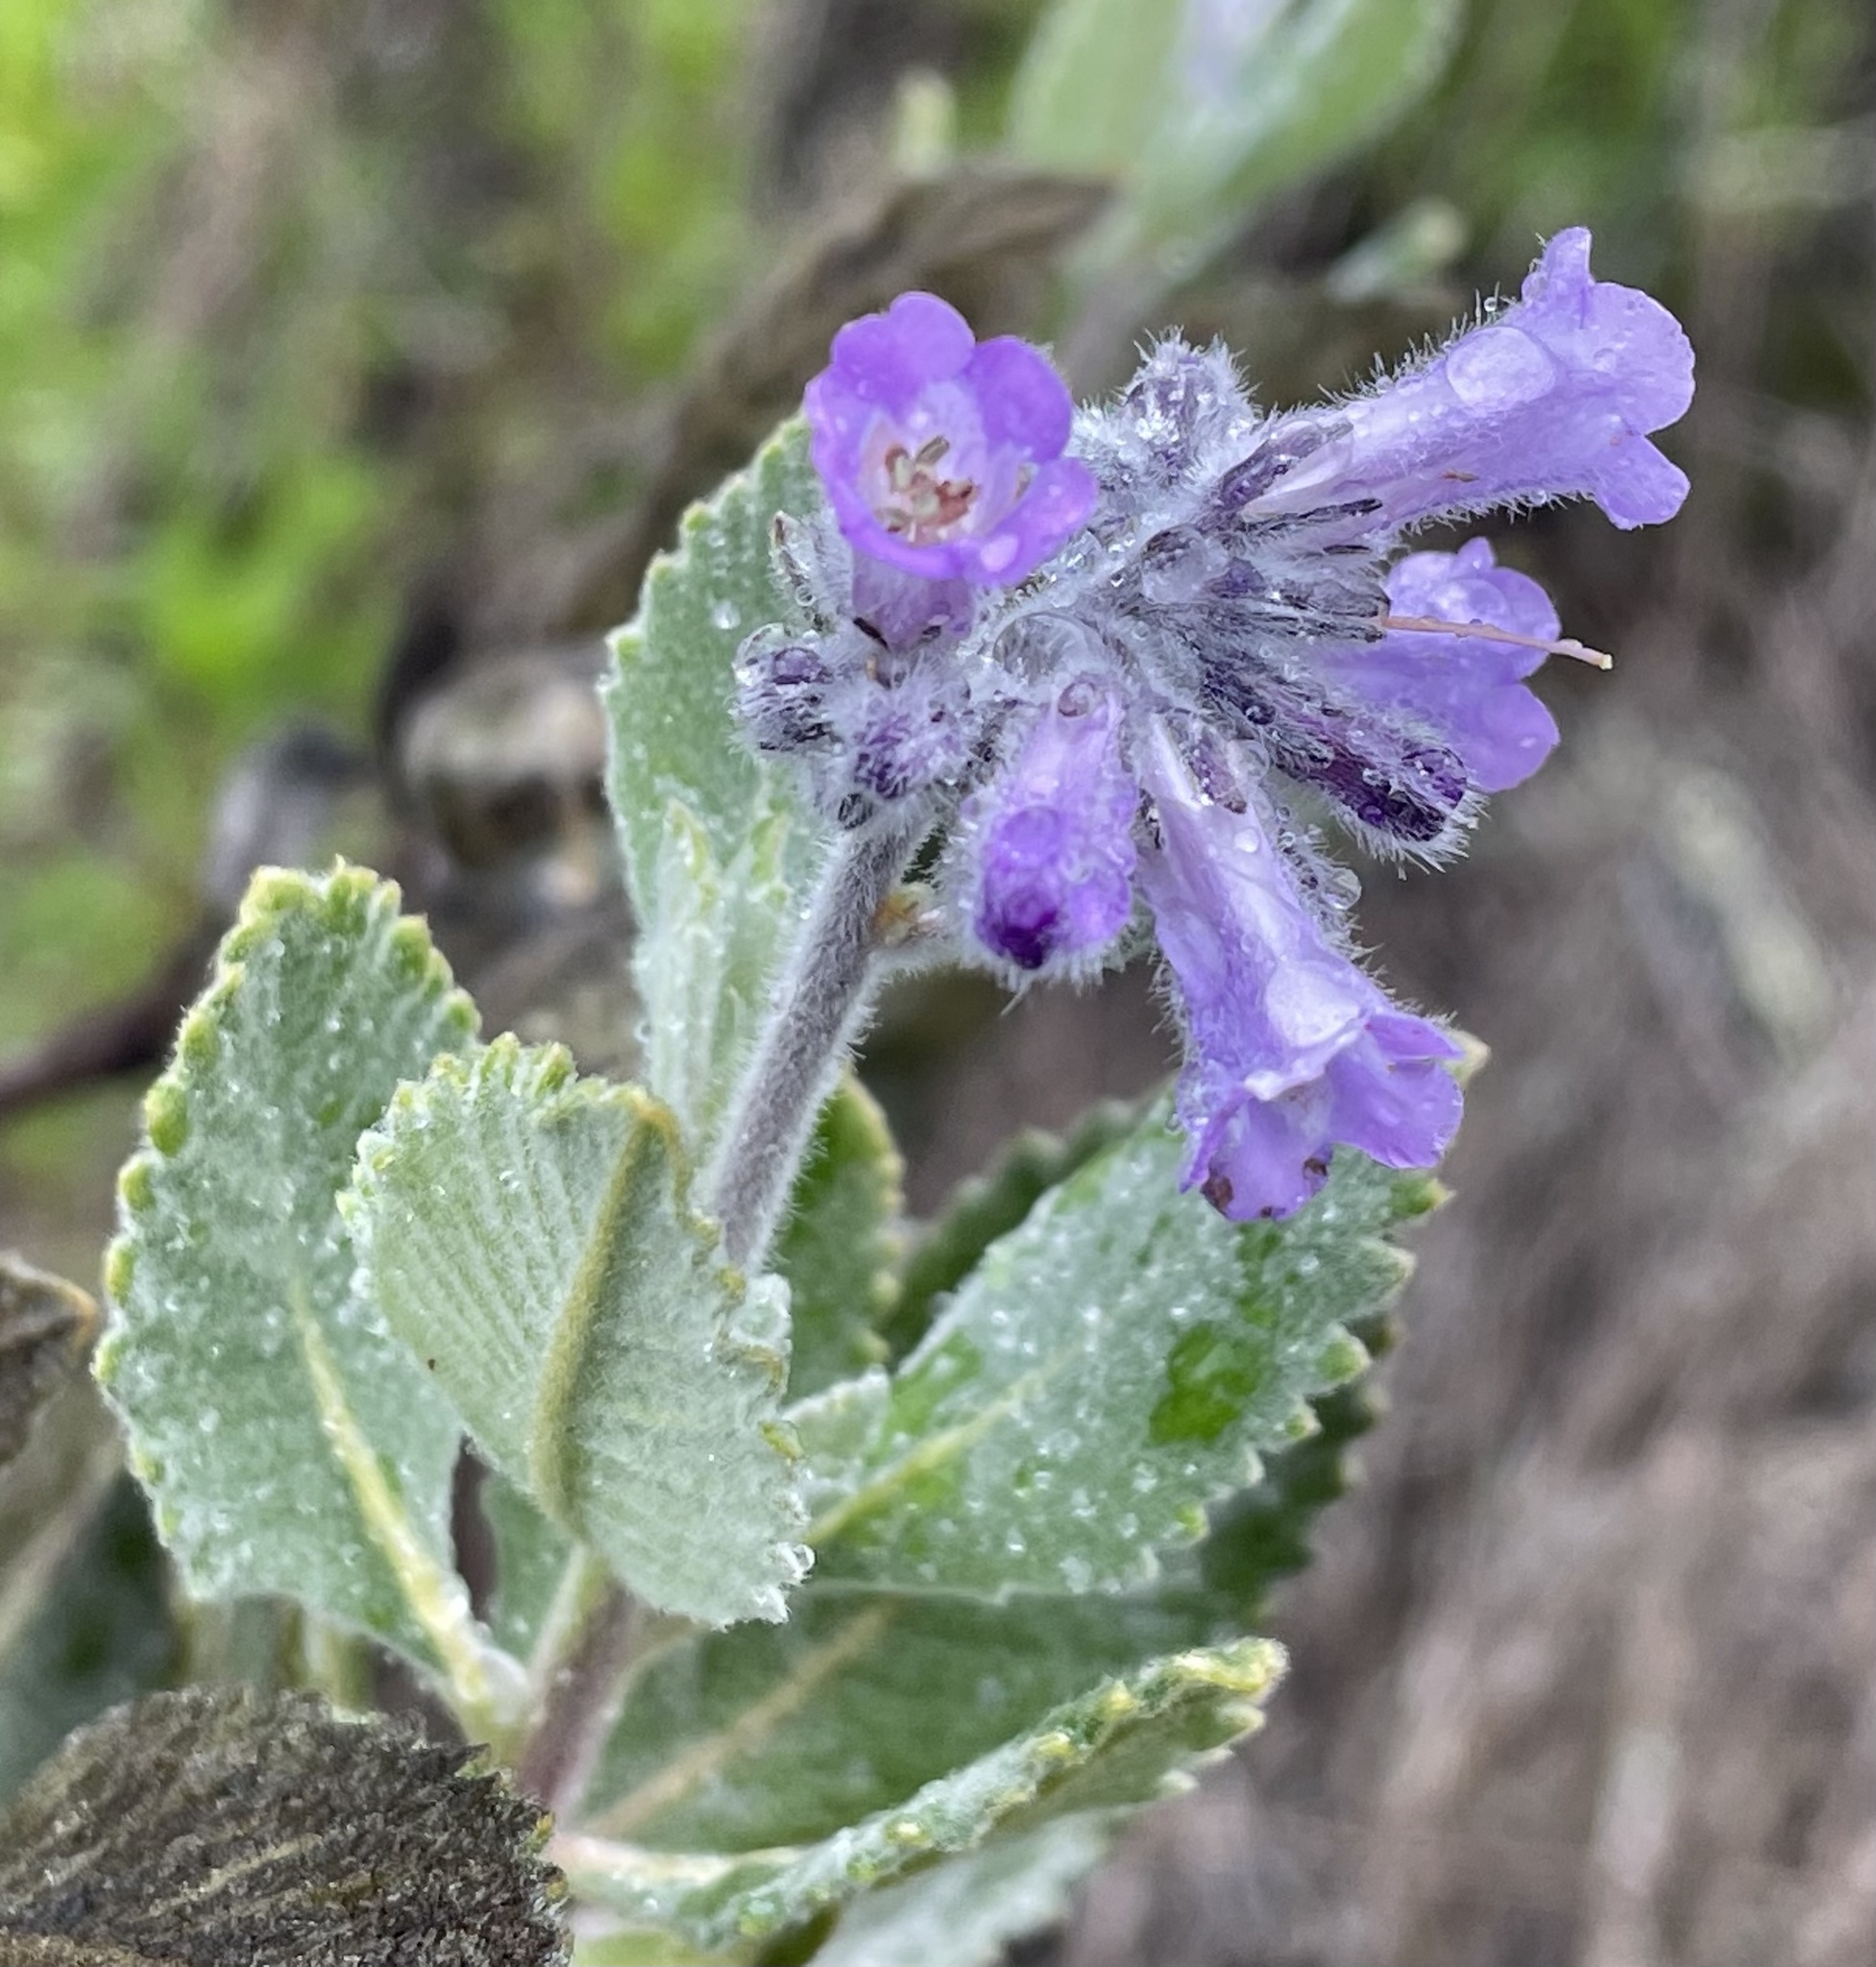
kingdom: Plantae
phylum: Tracheophyta
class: Magnoliopsida
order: Boraginales
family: Namaceae
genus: Eriodictyon
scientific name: Eriodictyon crassifolium
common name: Thick-leaf yerba-santa
